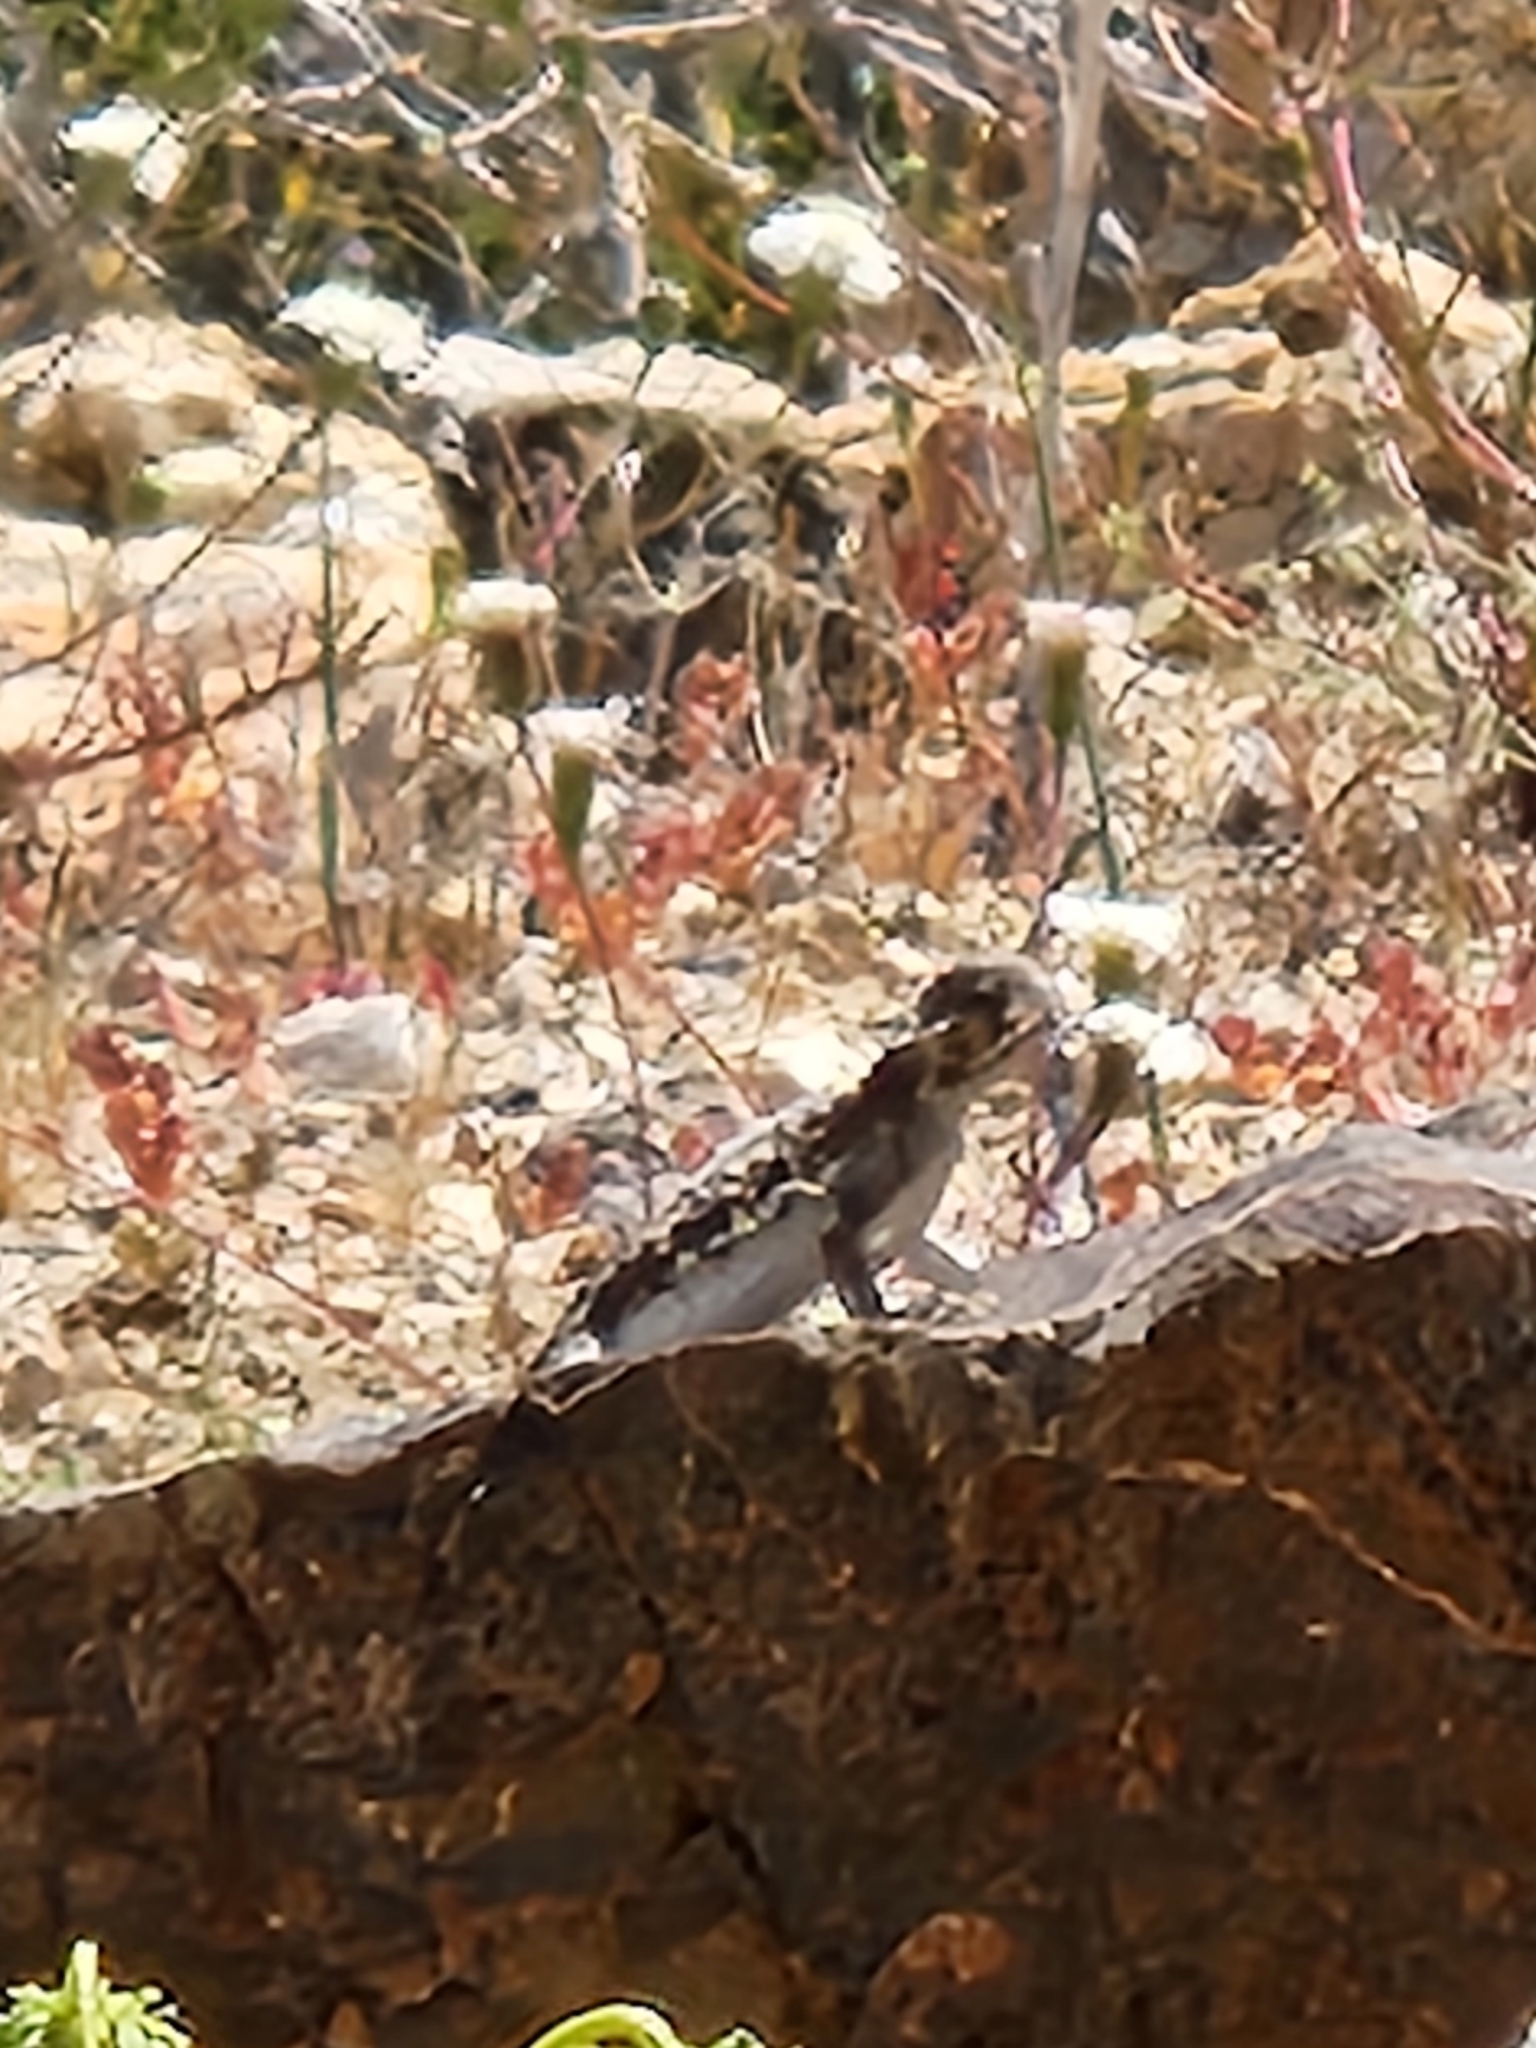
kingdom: Animalia
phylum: Chordata
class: Squamata
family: Phrynosomatidae
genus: Phrynosoma
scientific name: Phrynosoma platyrhinos
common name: Desert horned lizard
